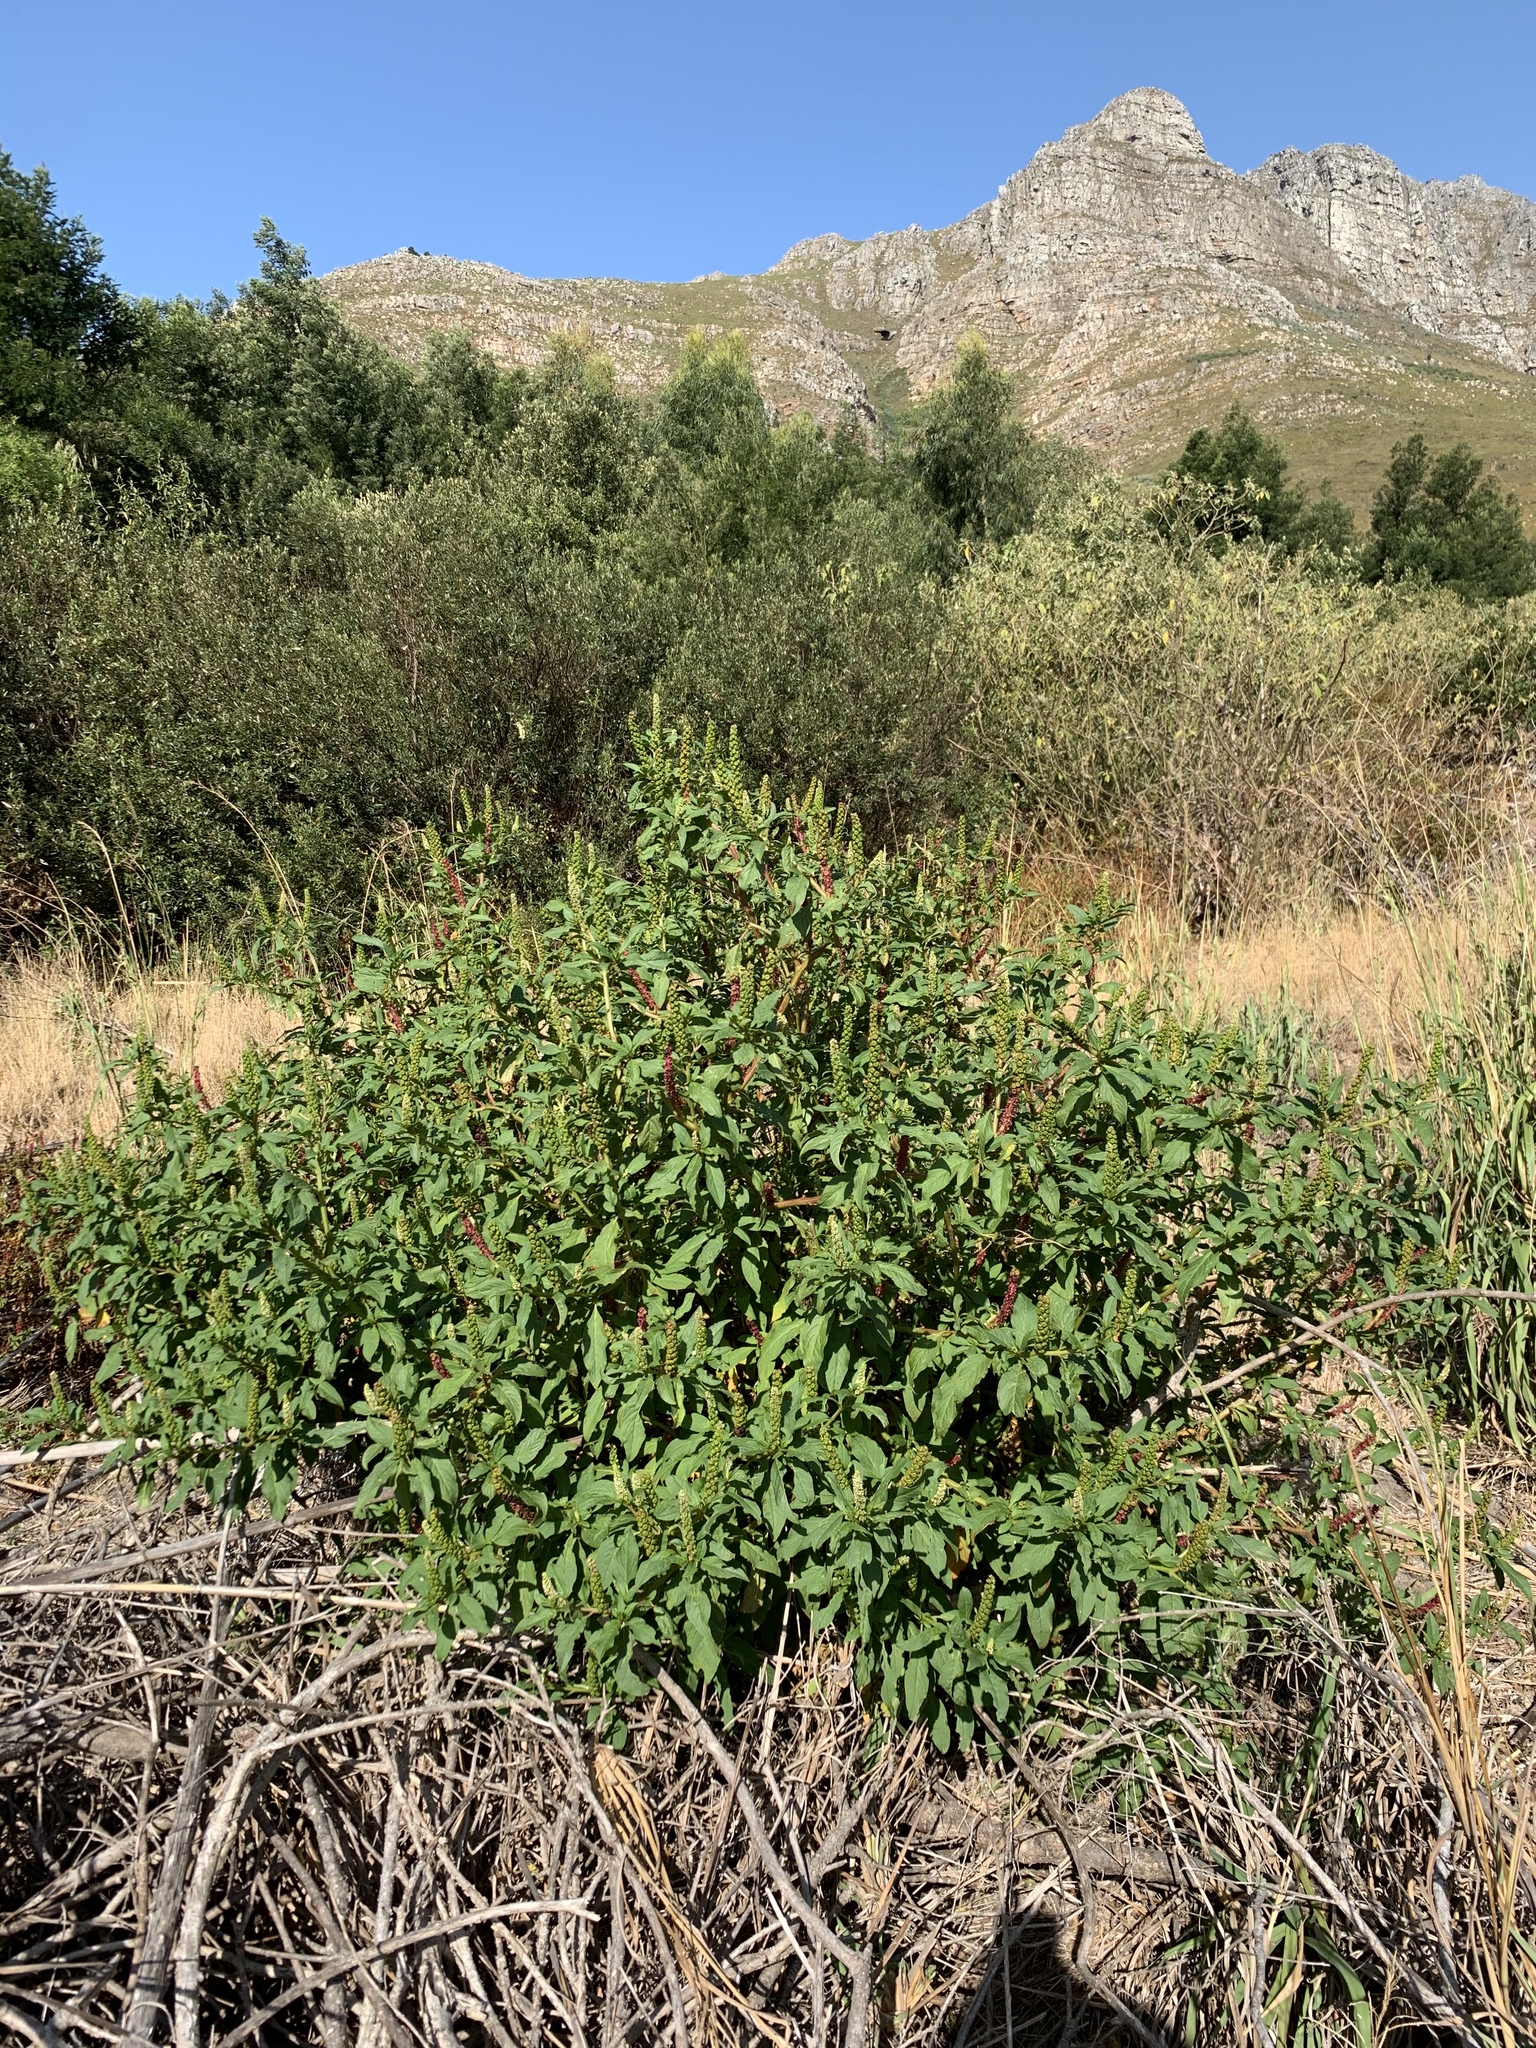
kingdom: Plantae
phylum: Tracheophyta
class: Magnoliopsida
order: Caryophyllales
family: Phytolaccaceae
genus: Phytolacca
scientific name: Phytolacca icosandra
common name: Button pokeweed
